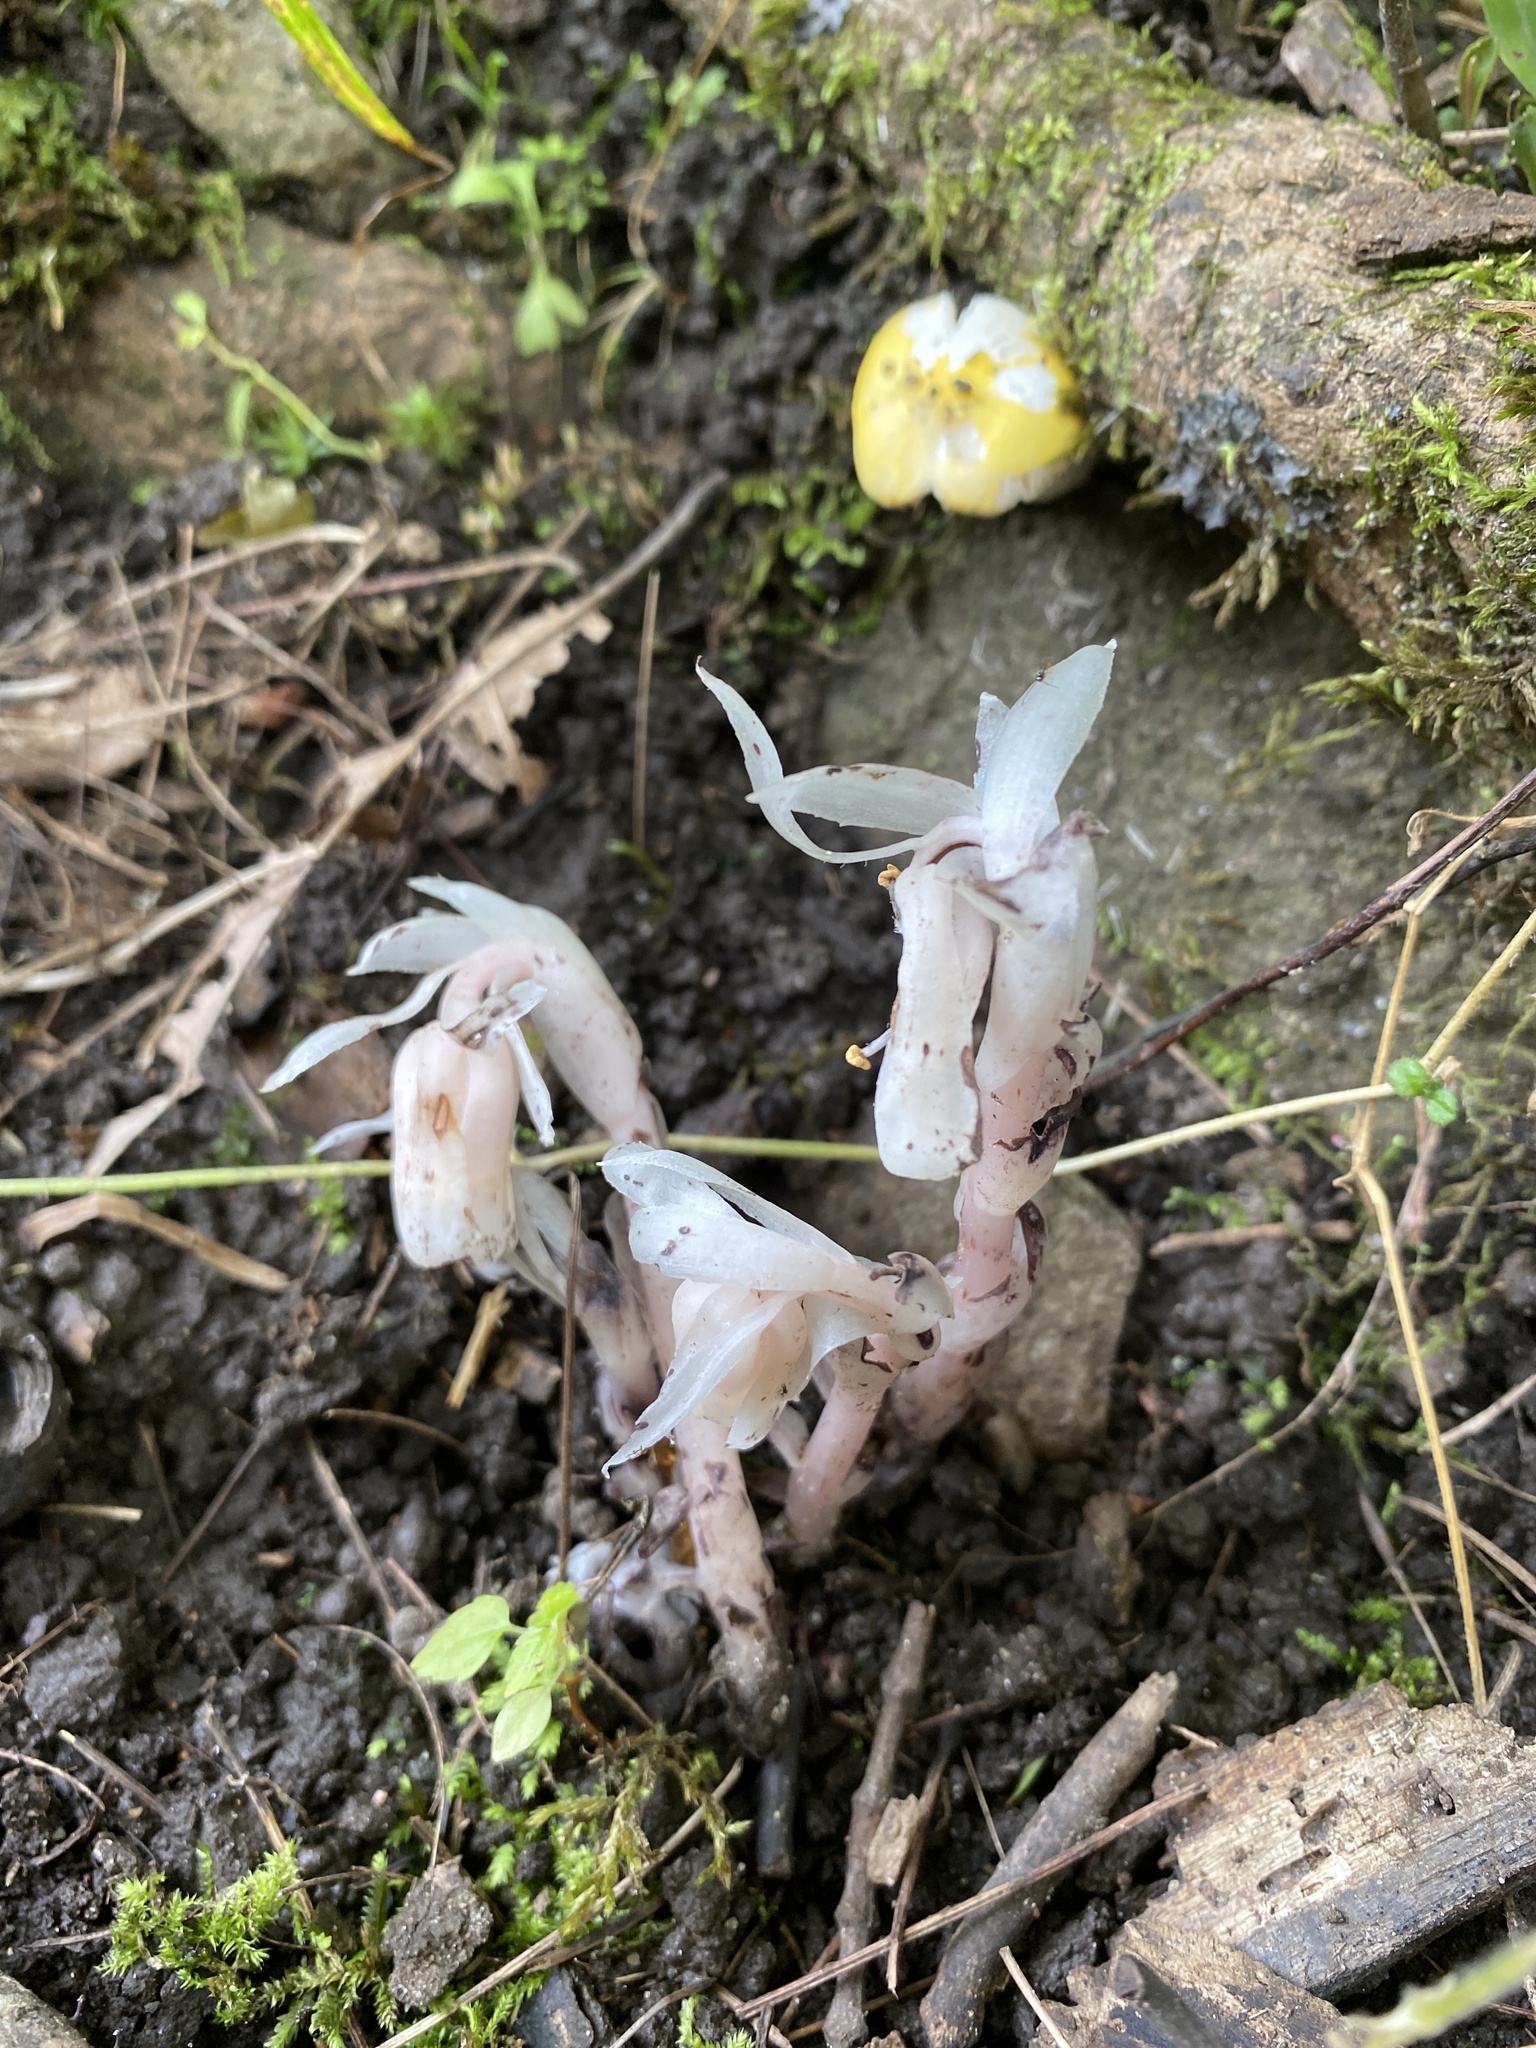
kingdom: Plantae
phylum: Tracheophyta
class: Magnoliopsida
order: Ericales
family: Ericaceae
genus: Monotropa
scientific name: Monotropa uniflora
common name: Convulsion root
